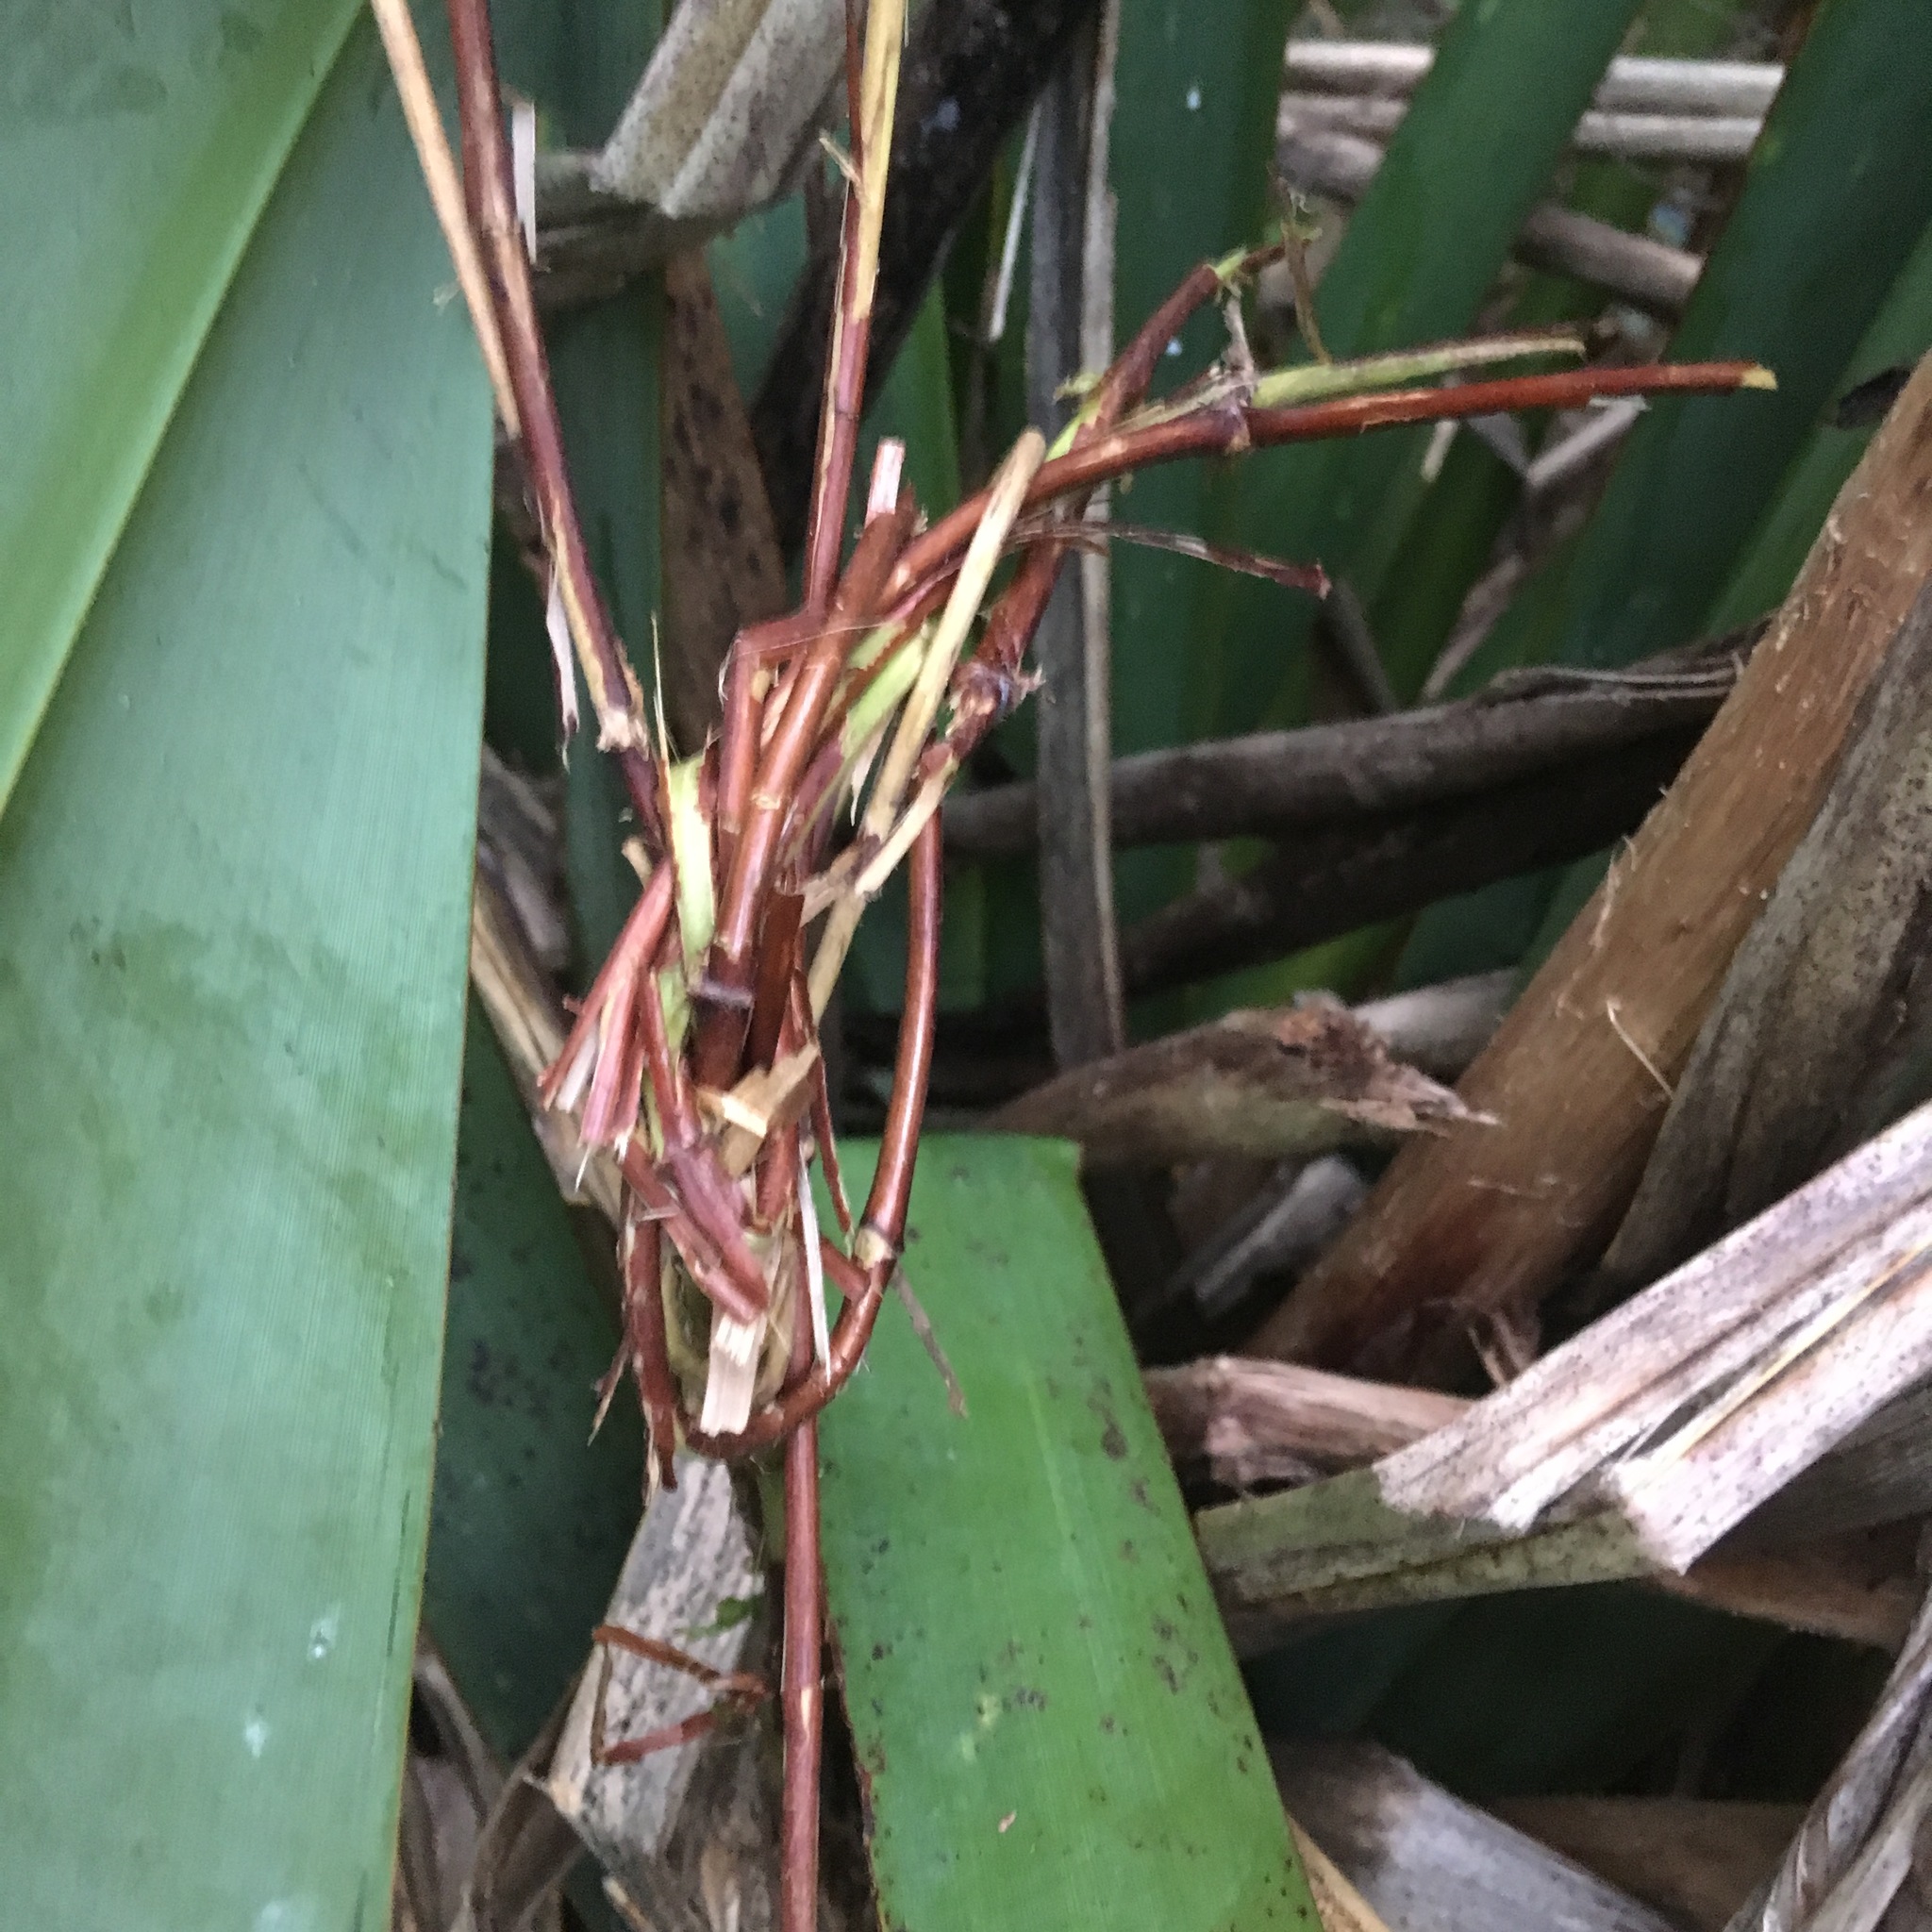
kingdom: Plantae
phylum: Tracheophyta
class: Magnoliopsida
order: Dipsacales
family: Caprifoliaceae
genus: Lonicera
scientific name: Lonicera japonica
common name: Japanese honeysuckle
